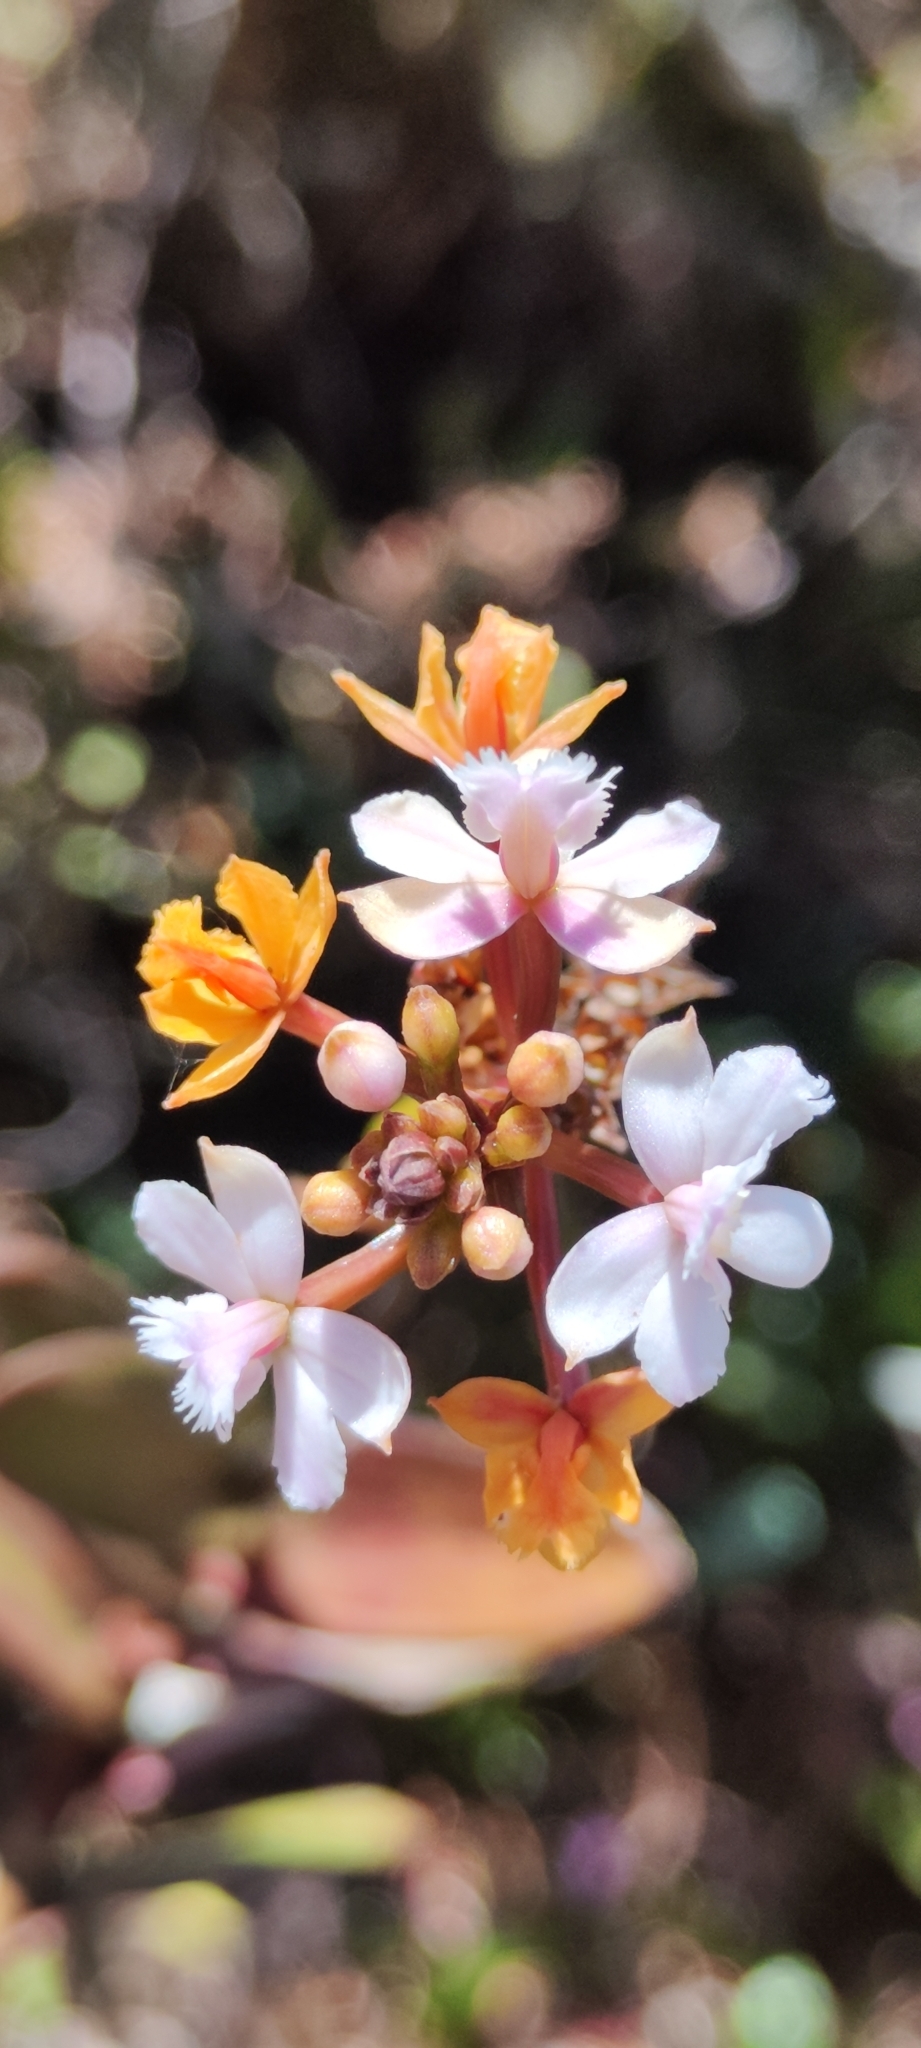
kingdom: Plantae
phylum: Tracheophyta
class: Liliopsida
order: Asparagales
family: Orchidaceae
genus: Epidendrum
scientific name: Epidendrum rauhii
